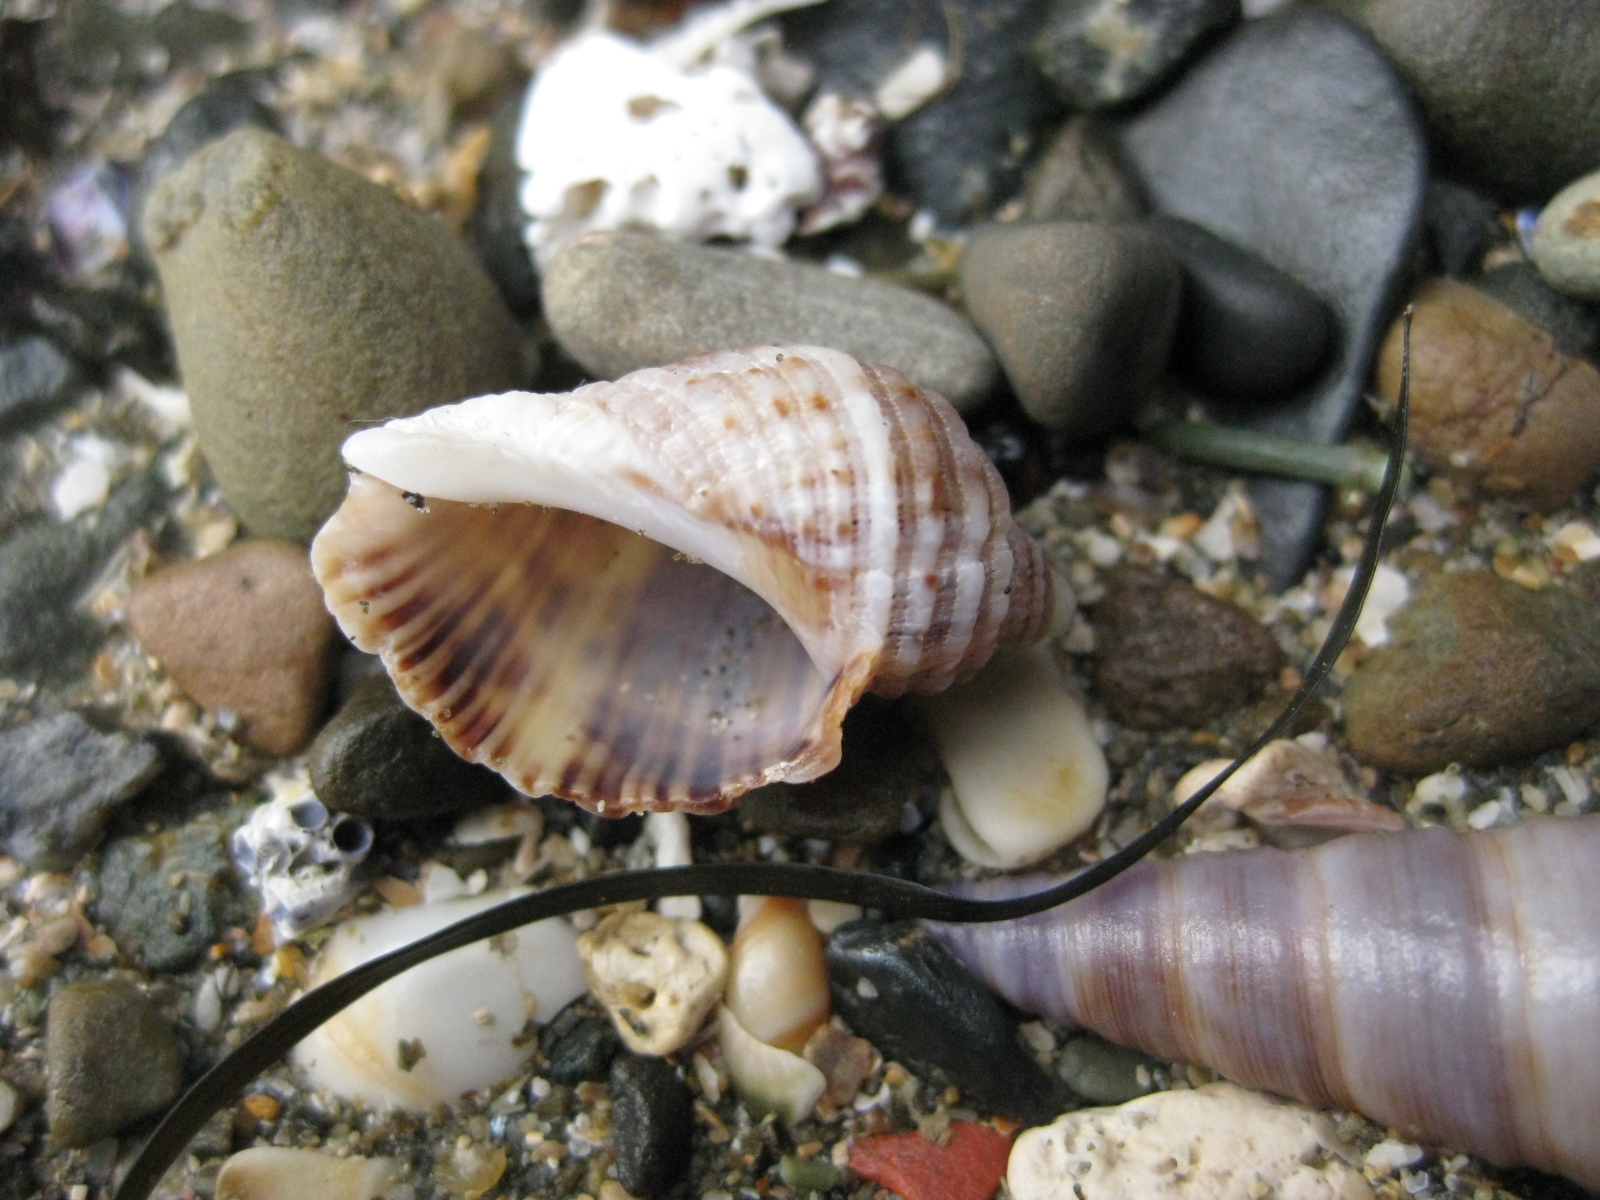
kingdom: Animalia
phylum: Mollusca
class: Gastropoda
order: Neogastropoda
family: Muricidae
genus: Dicathais
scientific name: Dicathais orbita
